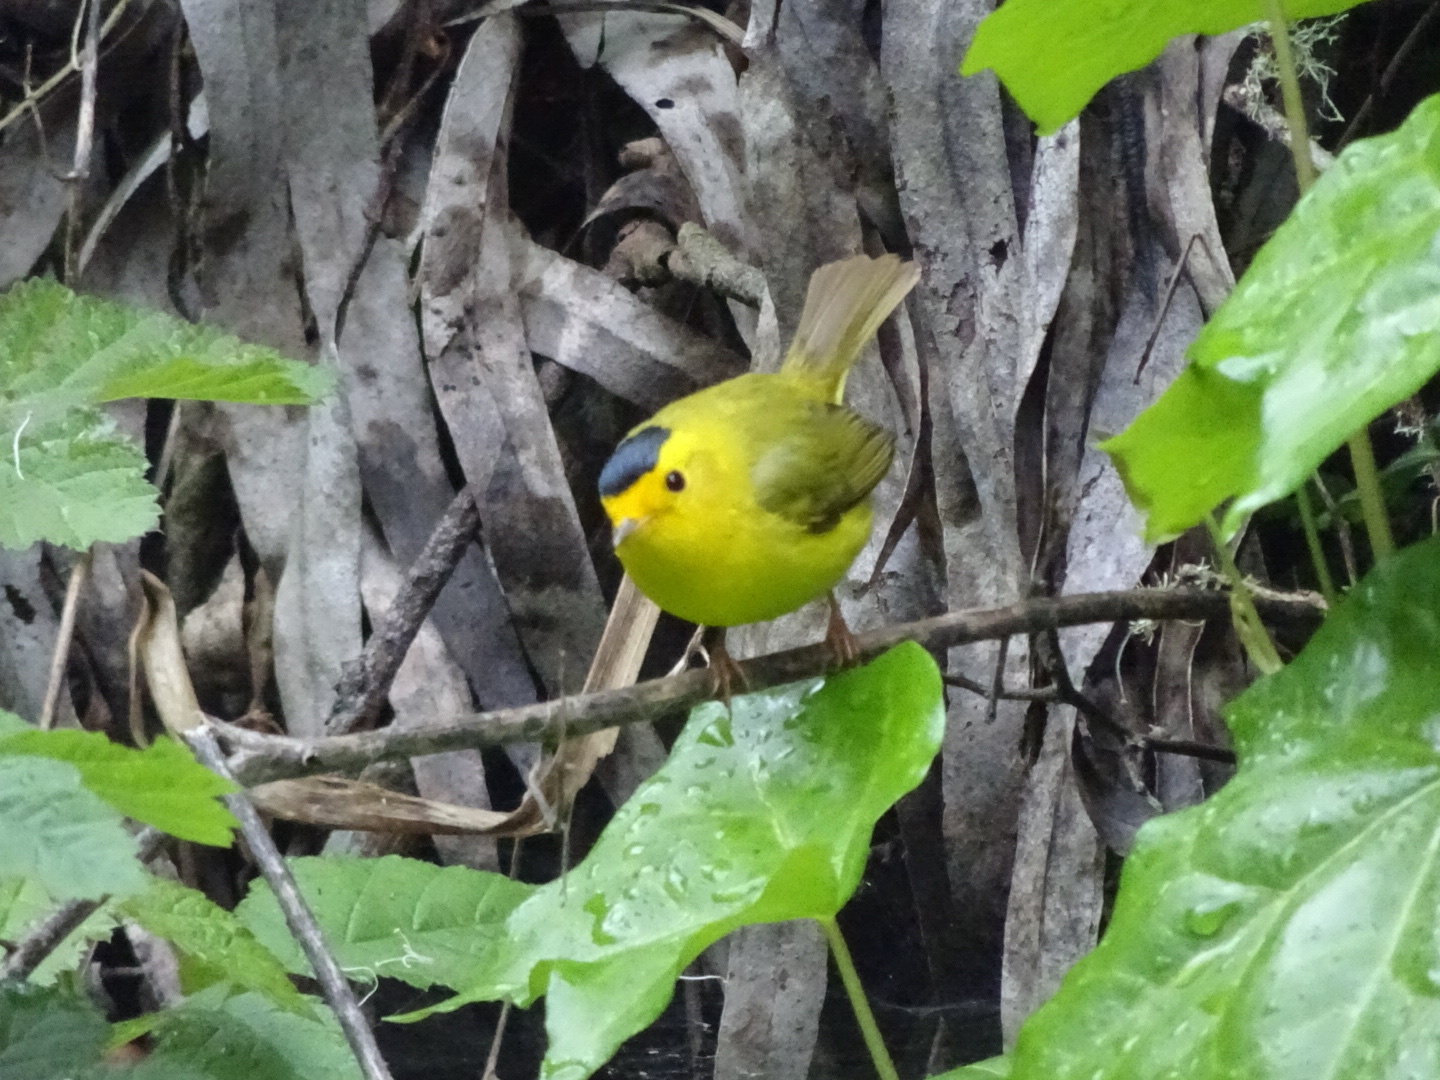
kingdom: Animalia
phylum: Chordata
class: Aves
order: Passeriformes
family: Parulidae
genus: Cardellina
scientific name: Cardellina pusilla
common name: Wilson's warbler
